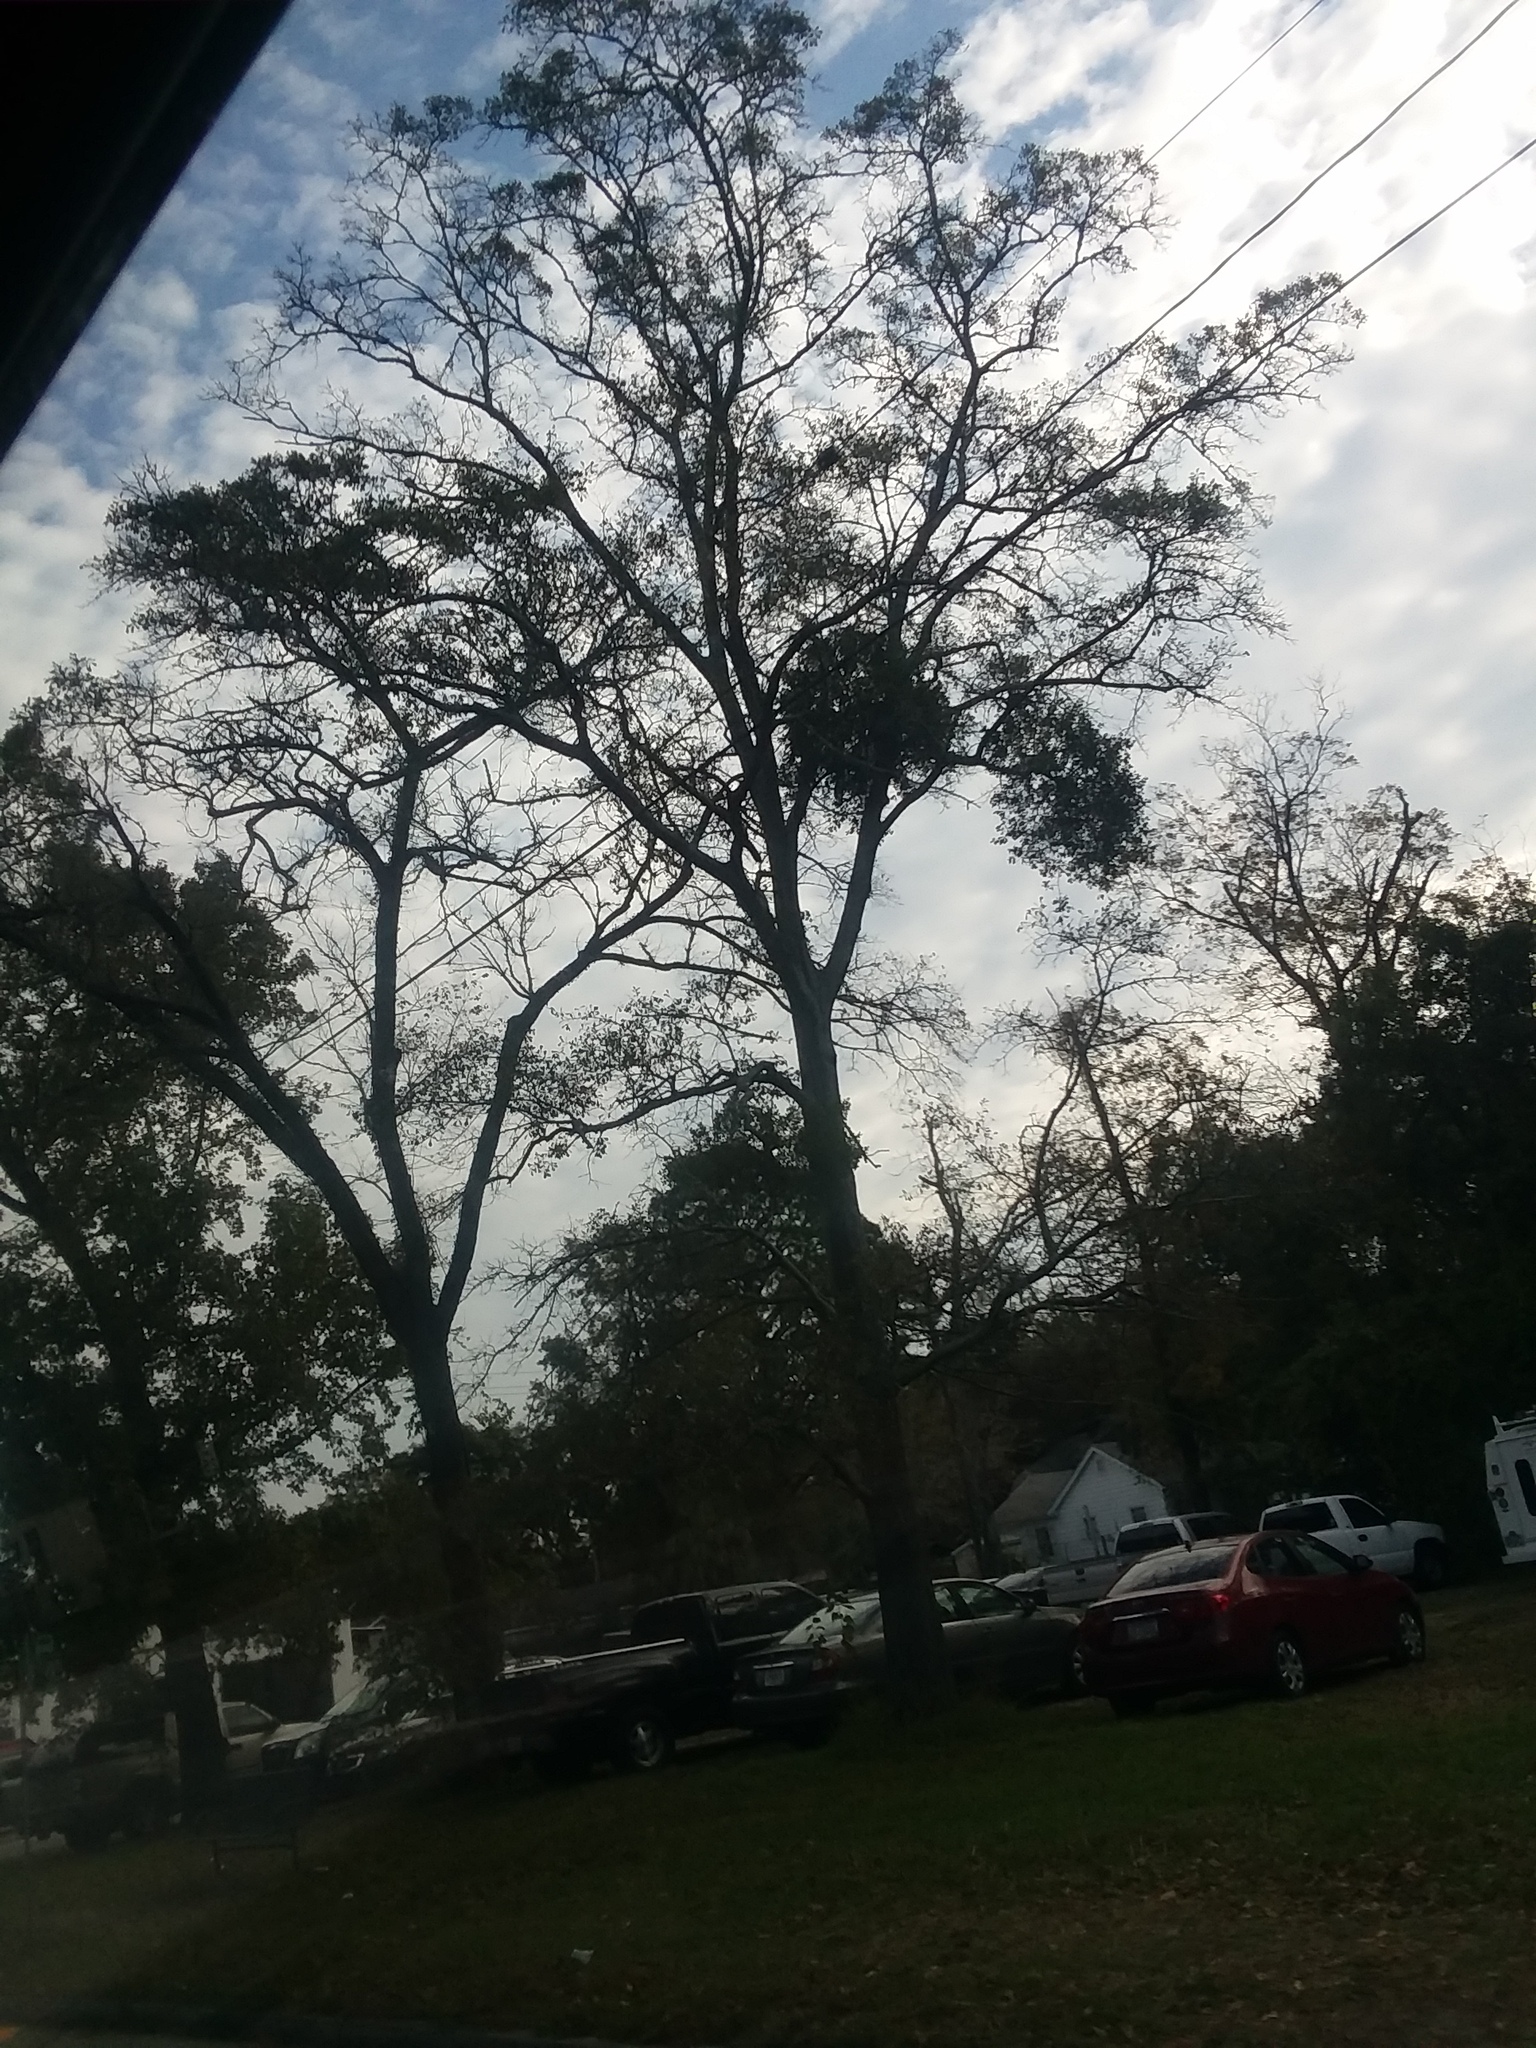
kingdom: Plantae
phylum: Tracheophyta
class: Magnoliopsida
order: Santalales
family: Viscaceae
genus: Phoradendron
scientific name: Phoradendron leucarpum
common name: Pacific mistletoe
